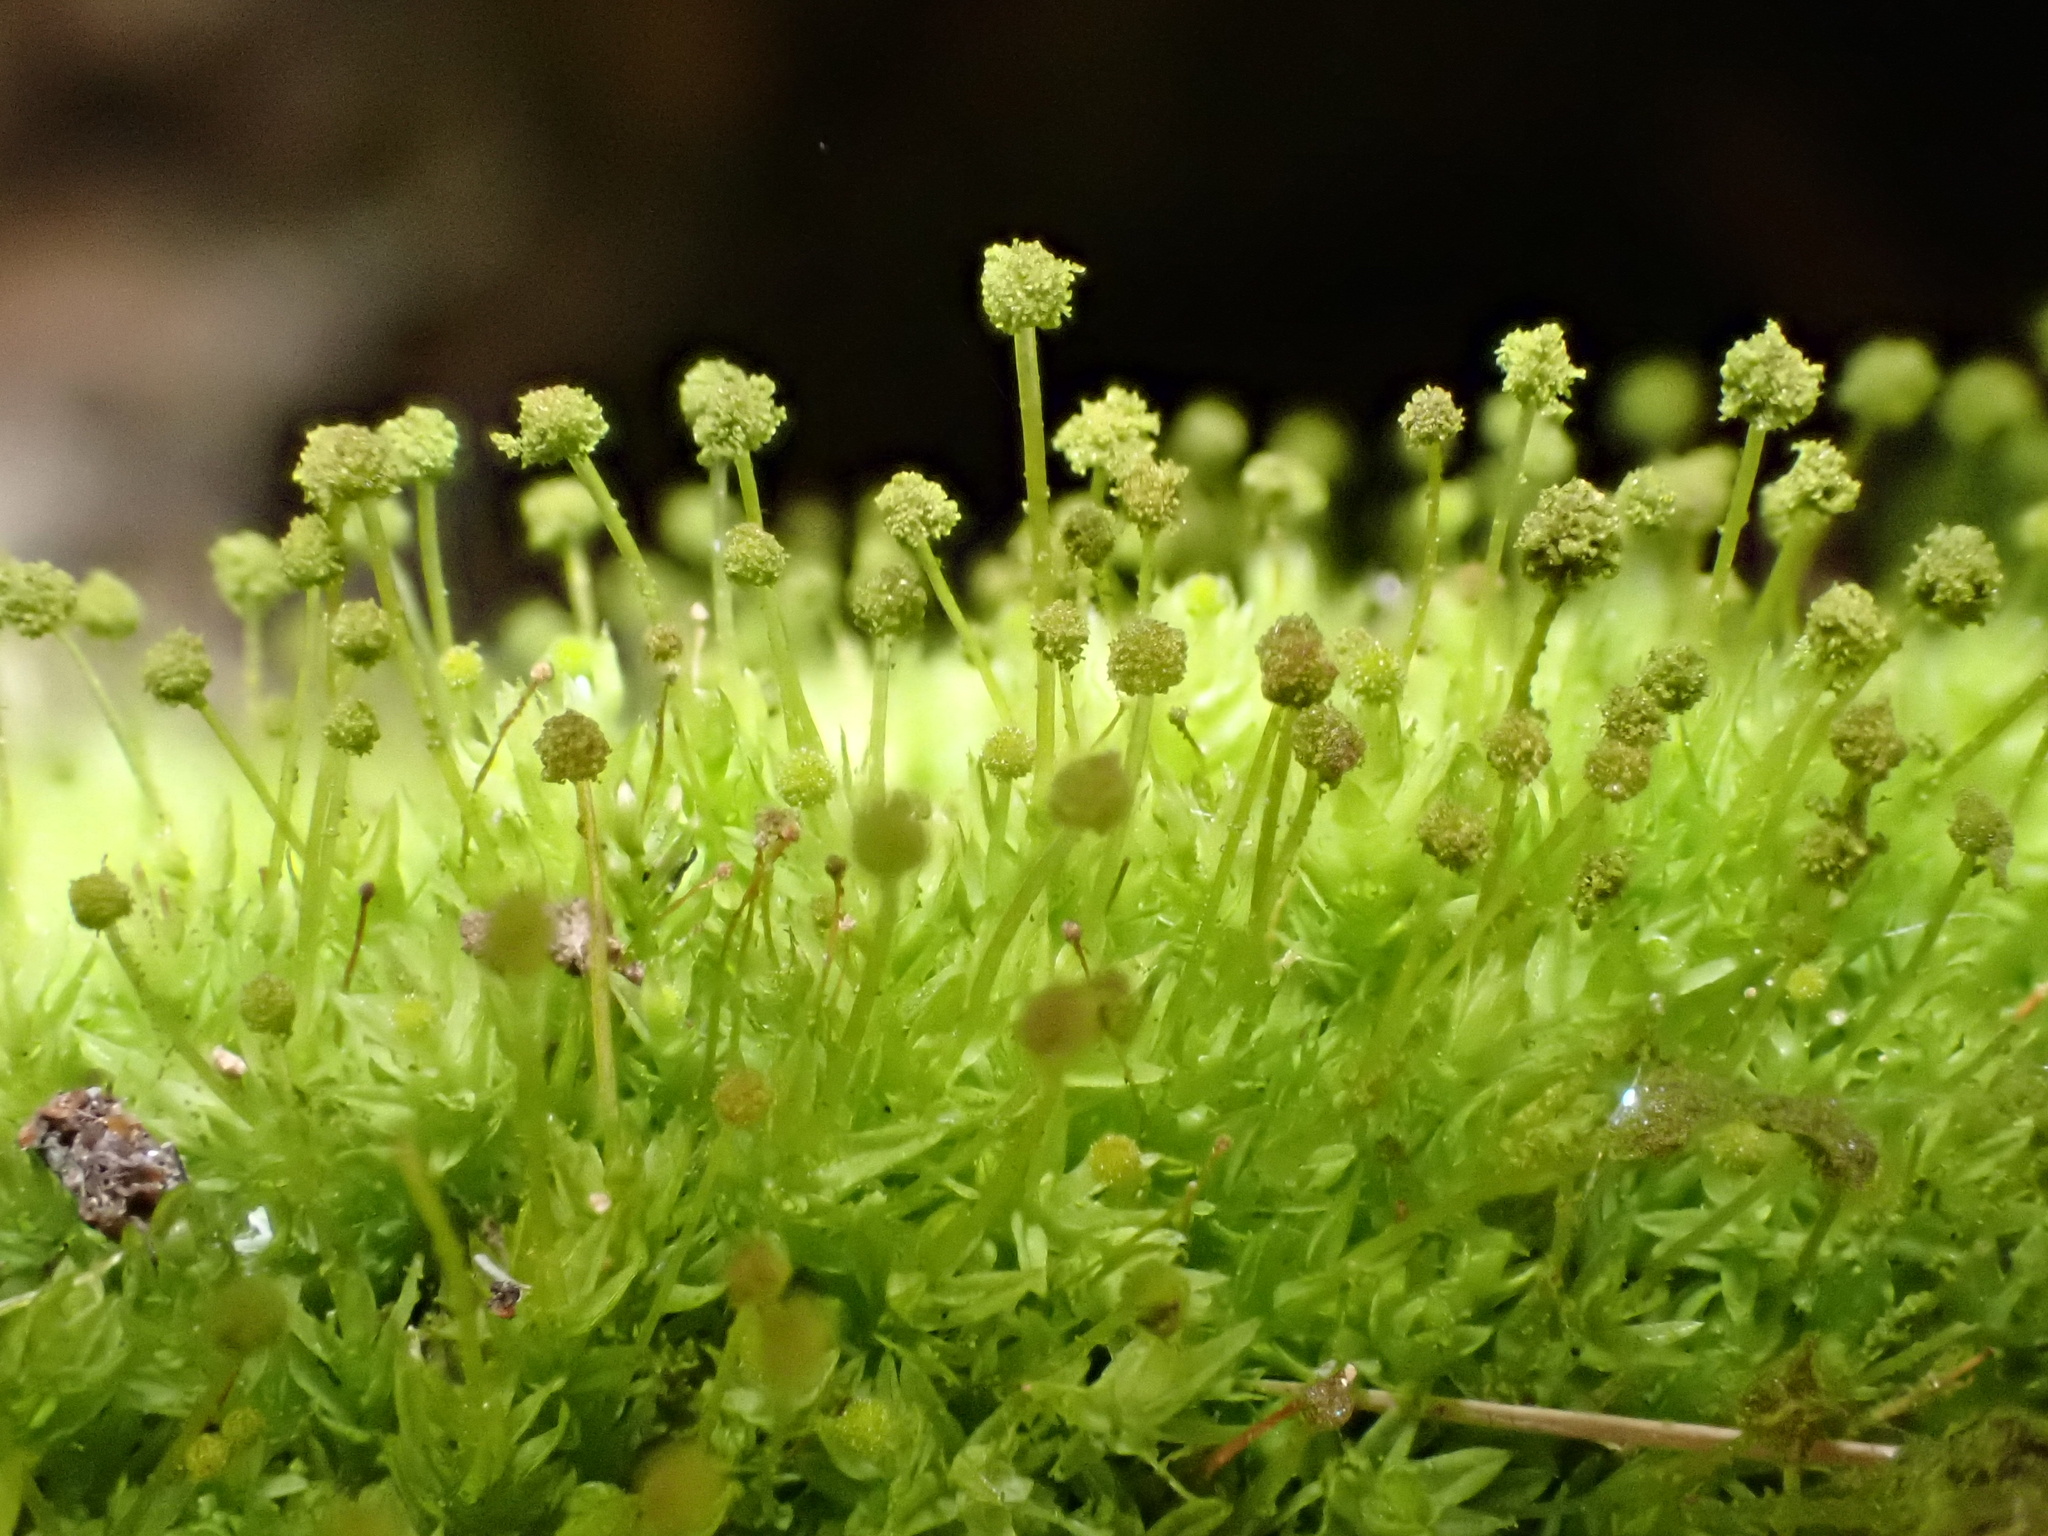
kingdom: Plantae
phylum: Bryophyta
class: Bryopsida
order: Aulacomniales
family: Aulacomniaceae
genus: Aulacomnium
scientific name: Aulacomnium androgynum
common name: Little groove moss
